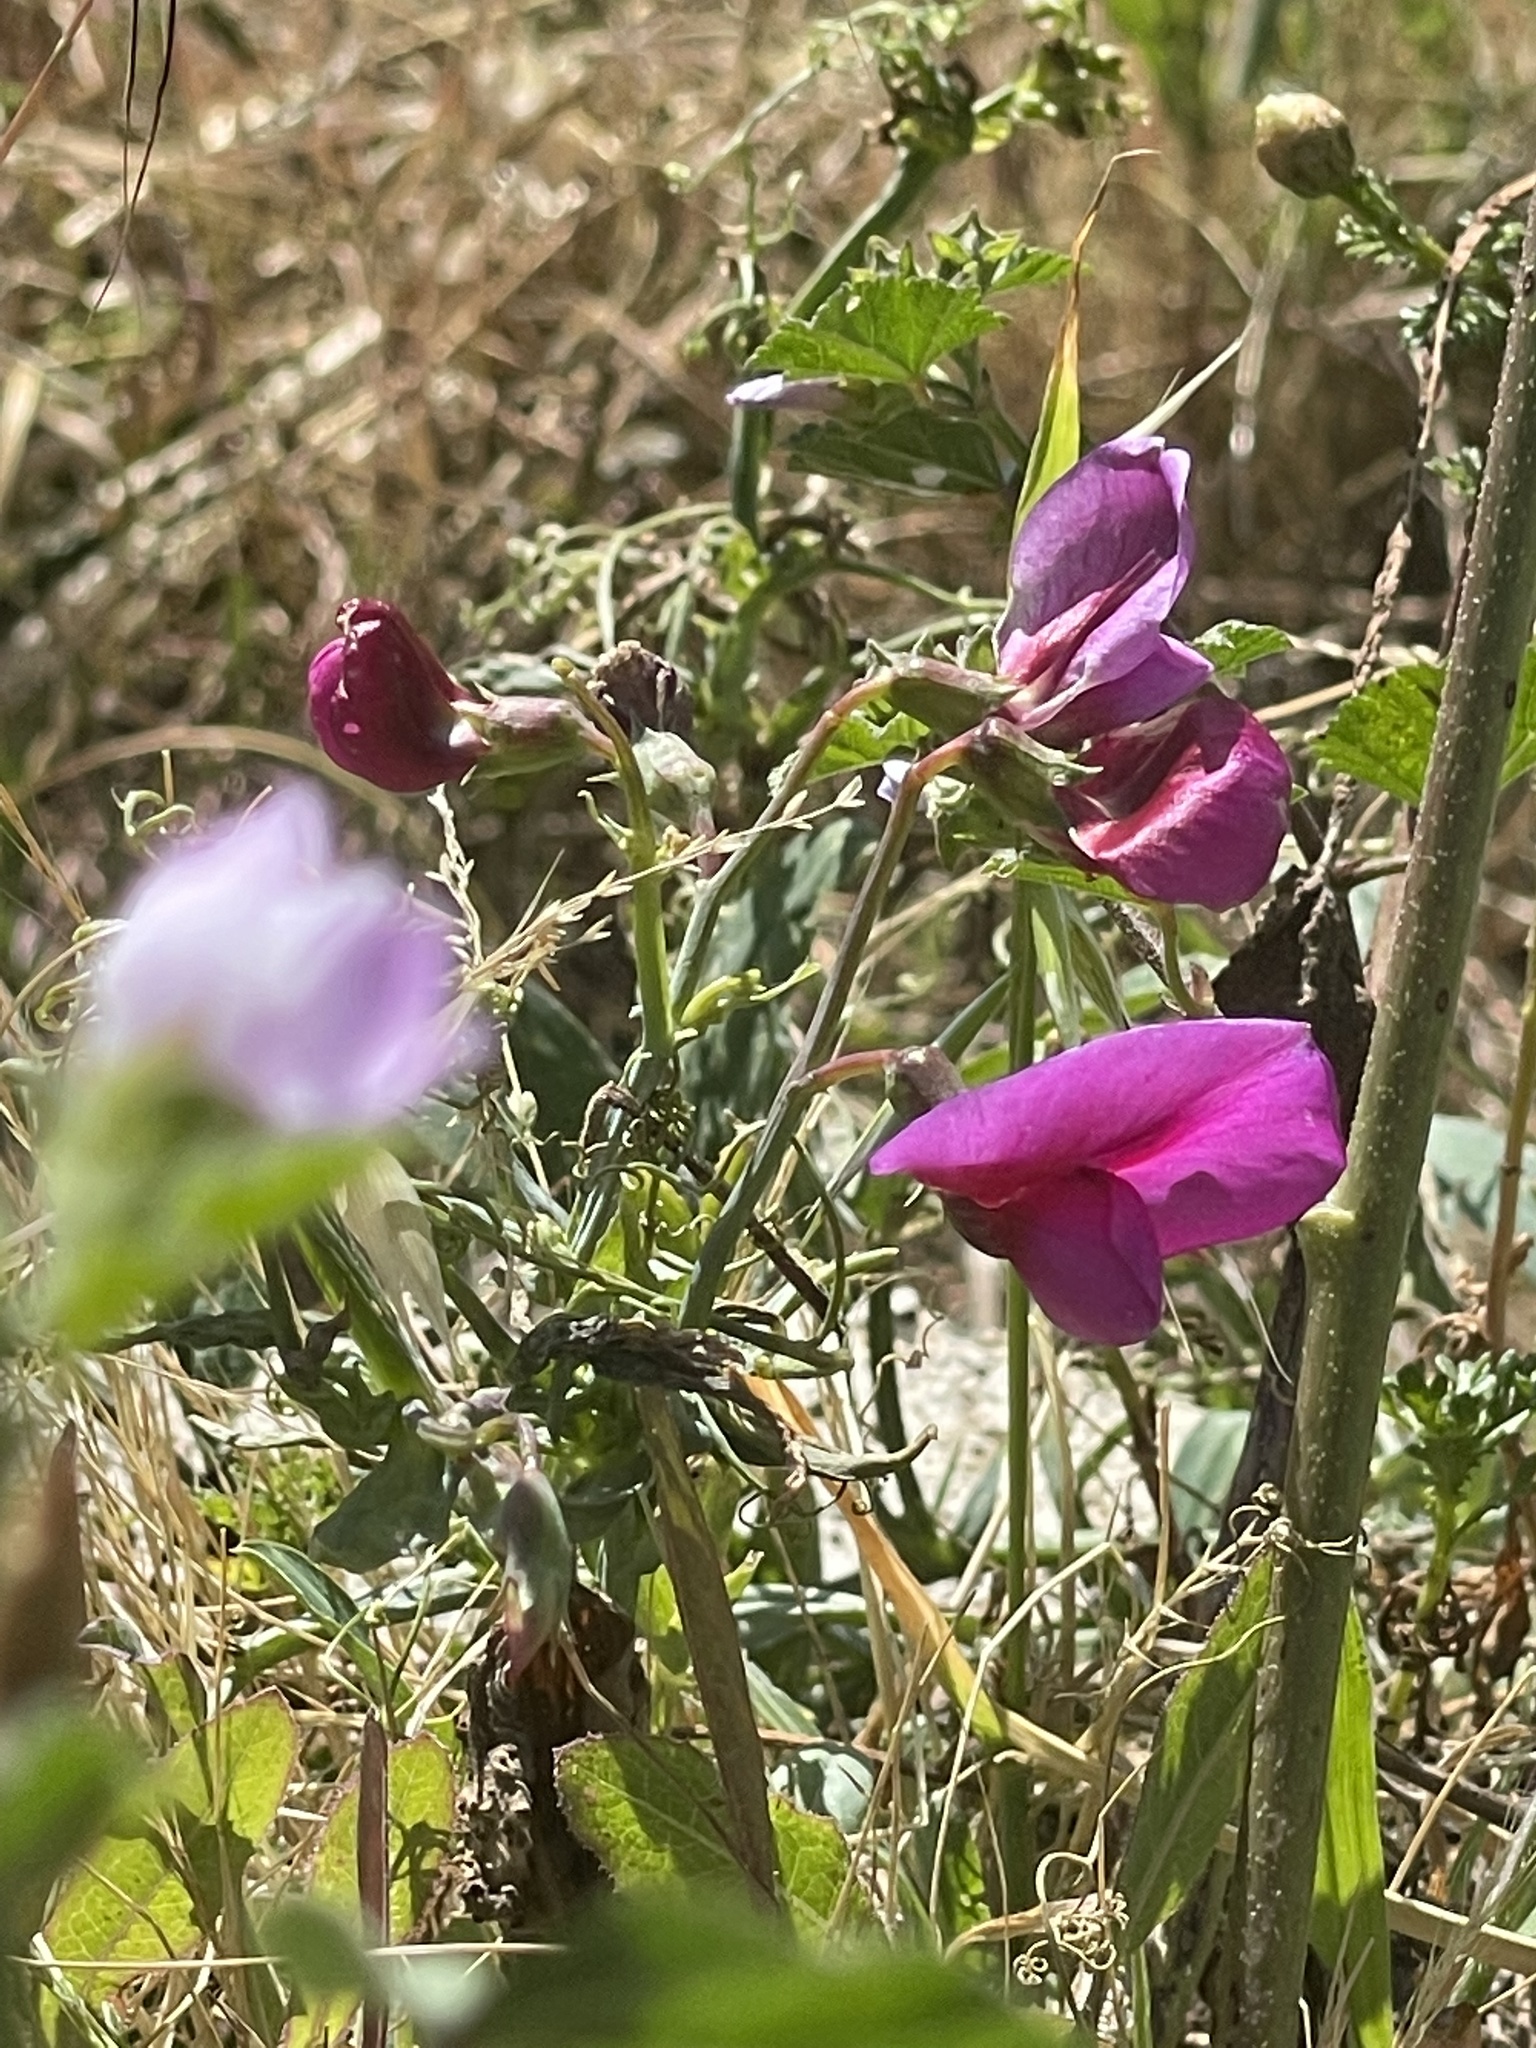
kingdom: Plantae
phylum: Tracheophyta
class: Magnoliopsida
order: Fabales
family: Fabaceae
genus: Lathyrus
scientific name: Lathyrus tingitanus
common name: Tangier pea
